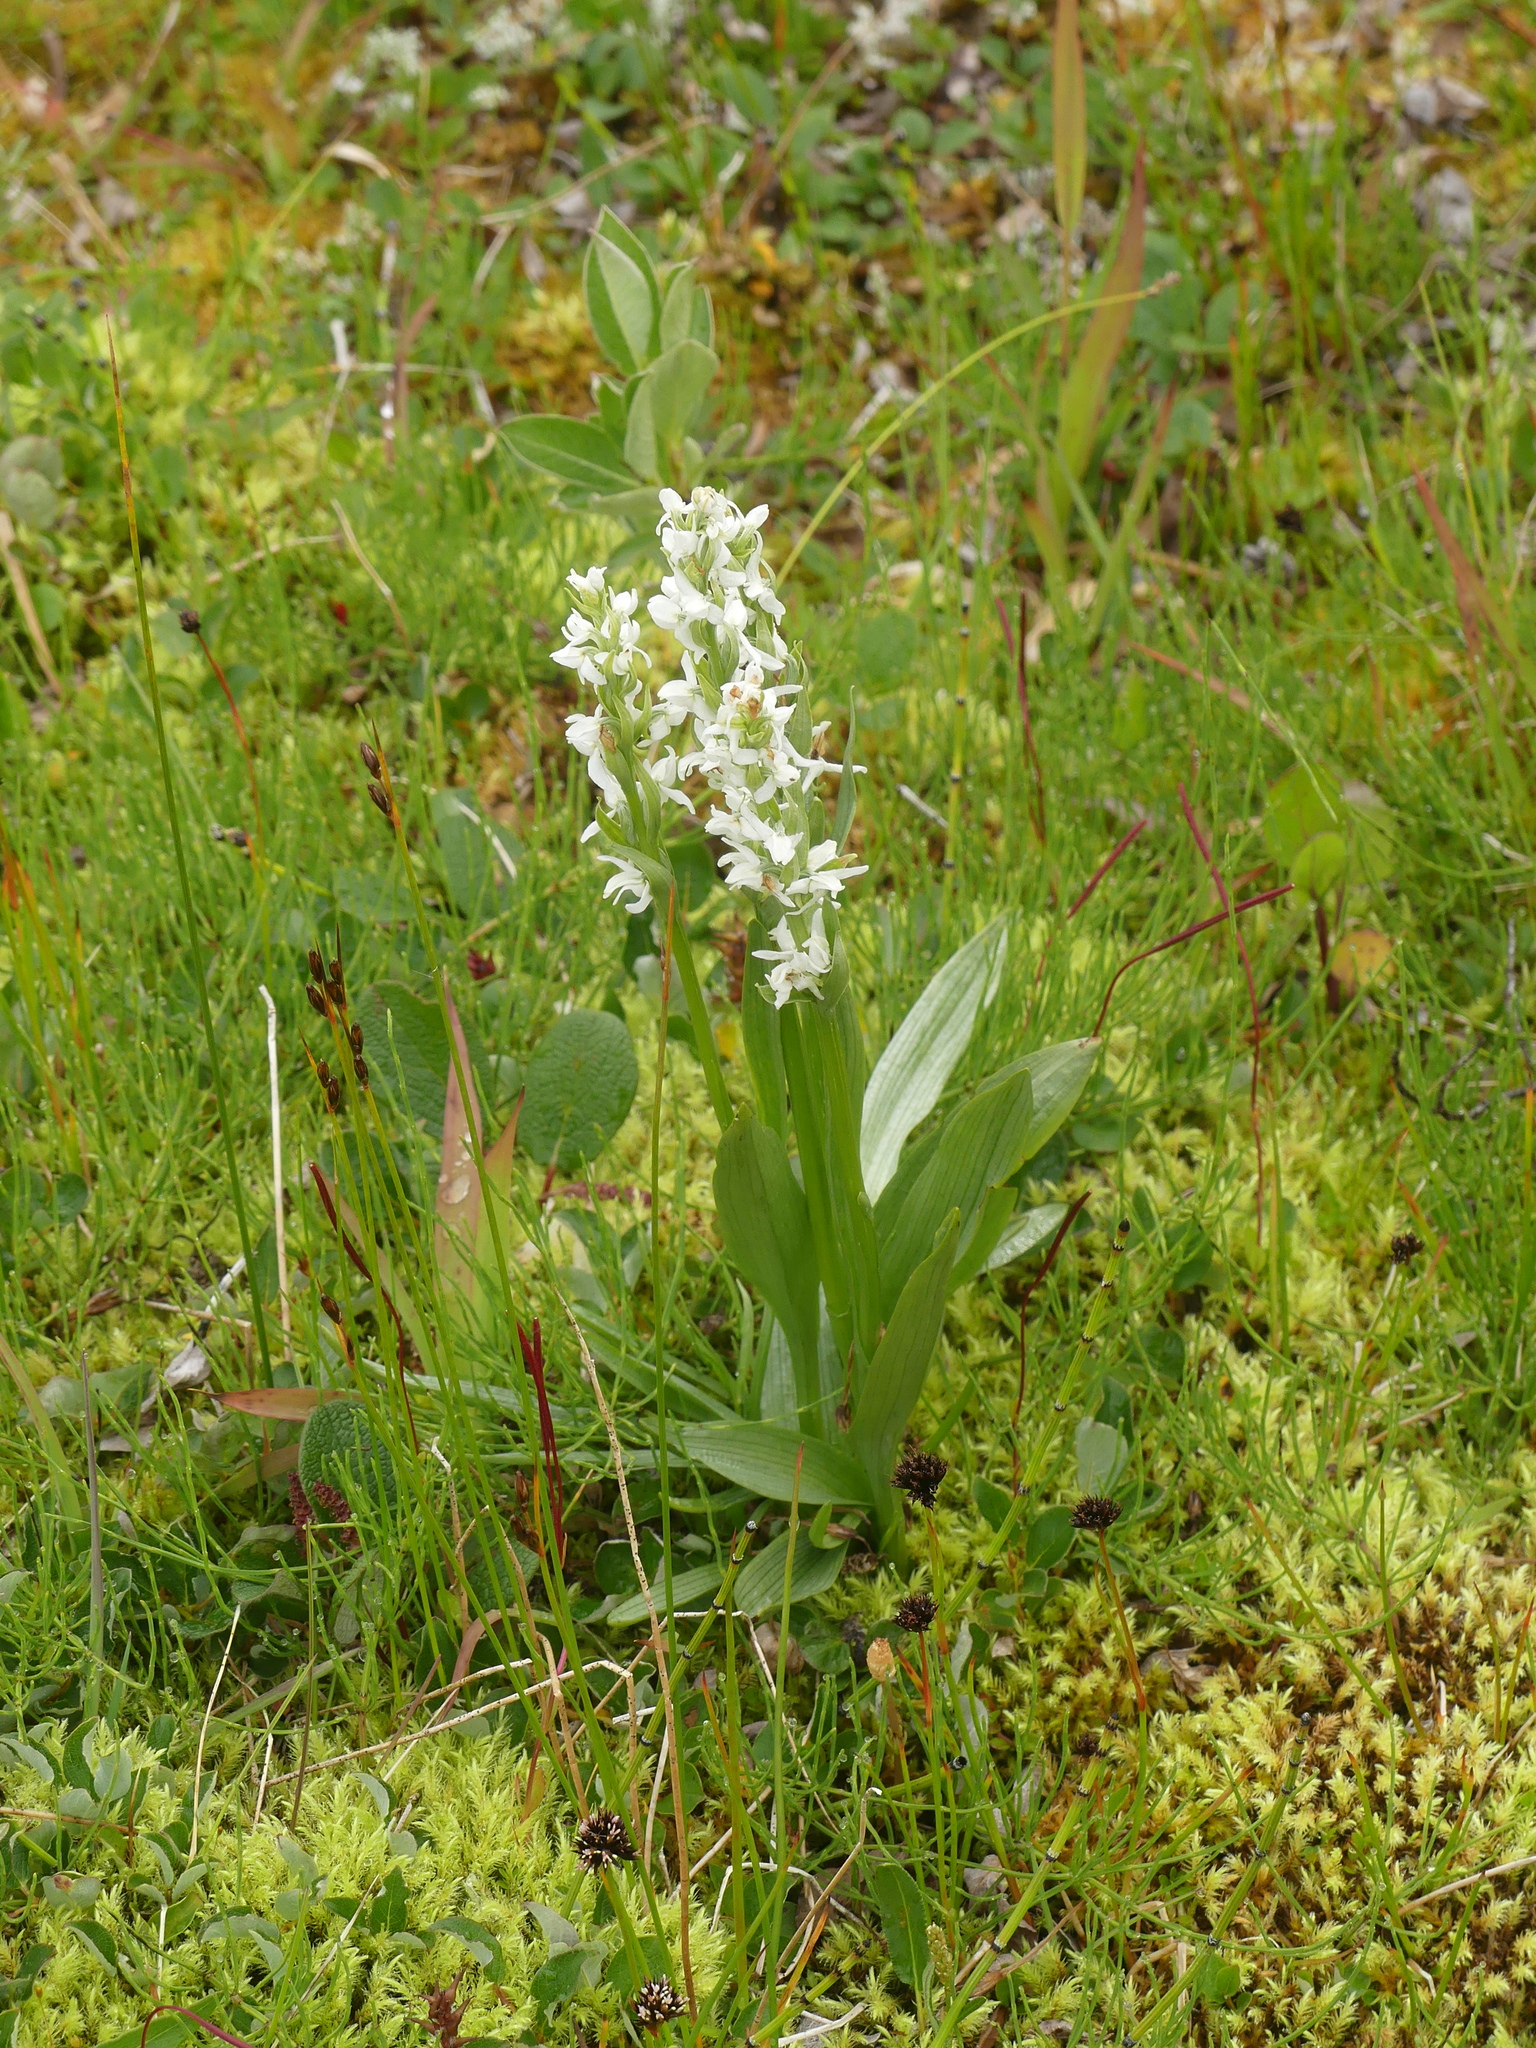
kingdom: Plantae
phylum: Tracheophyta
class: Liliopsida
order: Asparagales
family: Orchidaceae
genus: Platanthera
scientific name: Platanthera dilatata
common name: Bog candles
